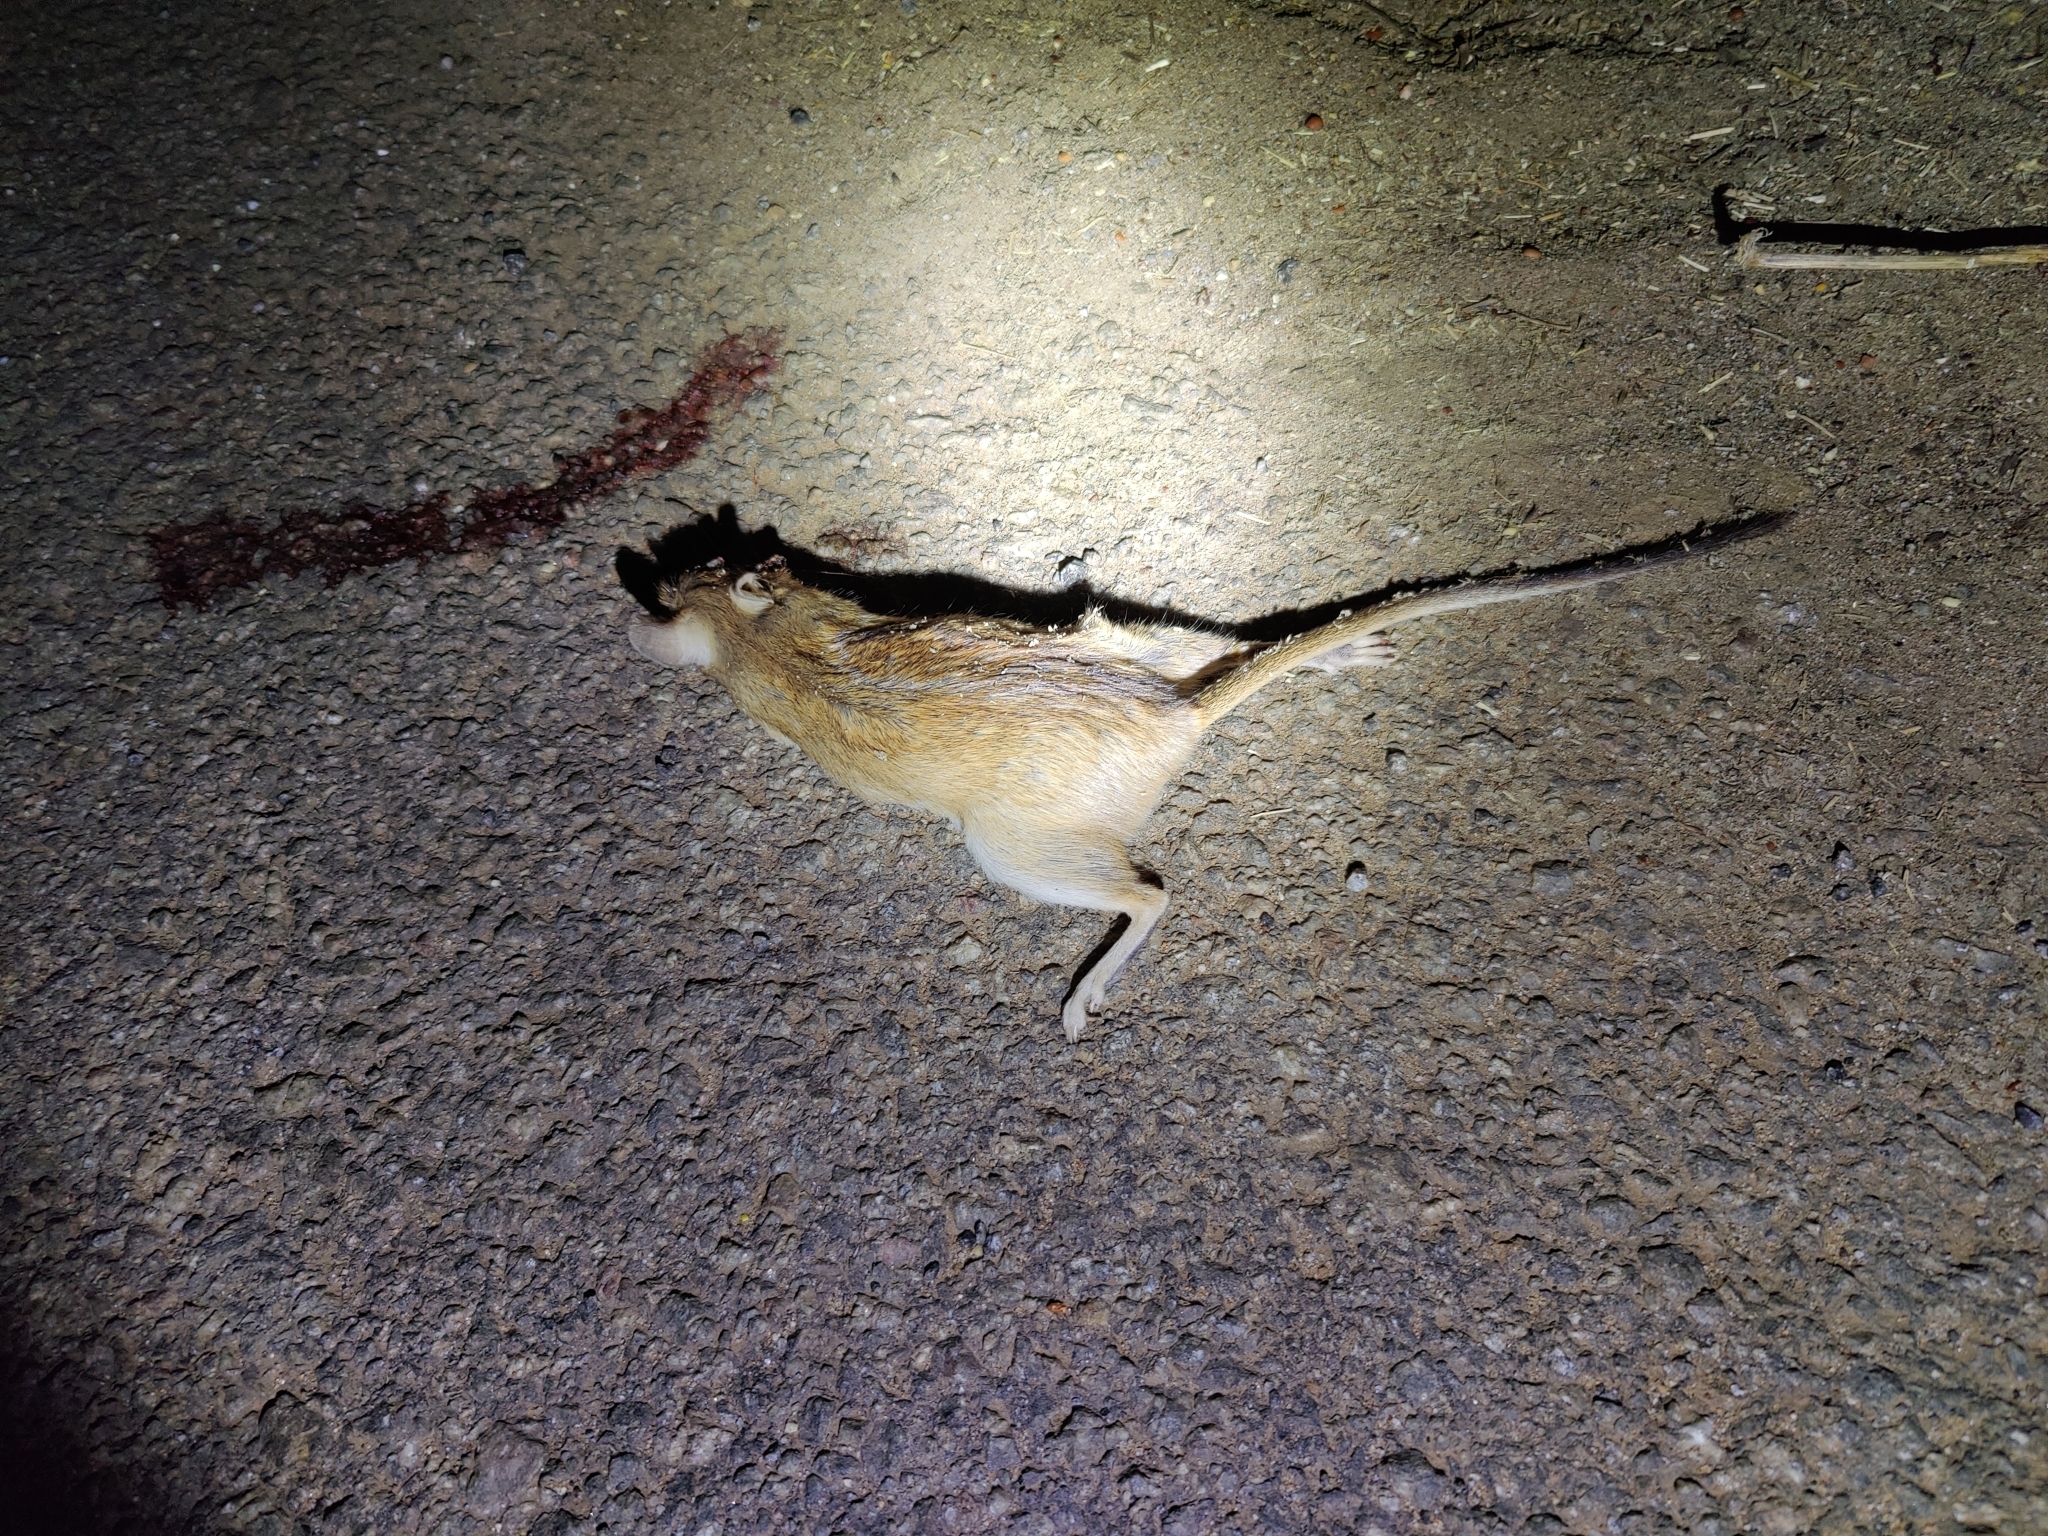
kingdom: Animalia
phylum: Chordata
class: Mammalia
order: Rodentia
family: Muridae
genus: Tatera
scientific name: Tatera indica
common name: Indian gerbil
